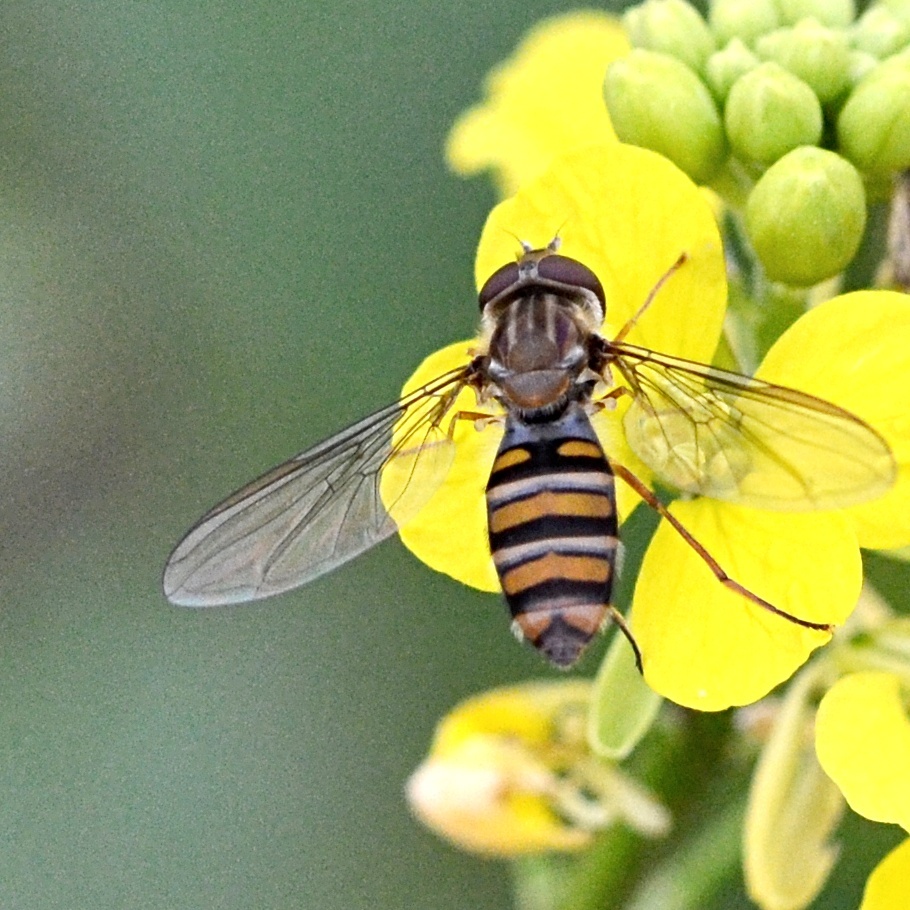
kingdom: Animalia
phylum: Arthropoda
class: Insecta
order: Diptera
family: Syrphidae
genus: Episyrphus
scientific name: Episyrphus balteatus
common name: Marmalade hoverfly
